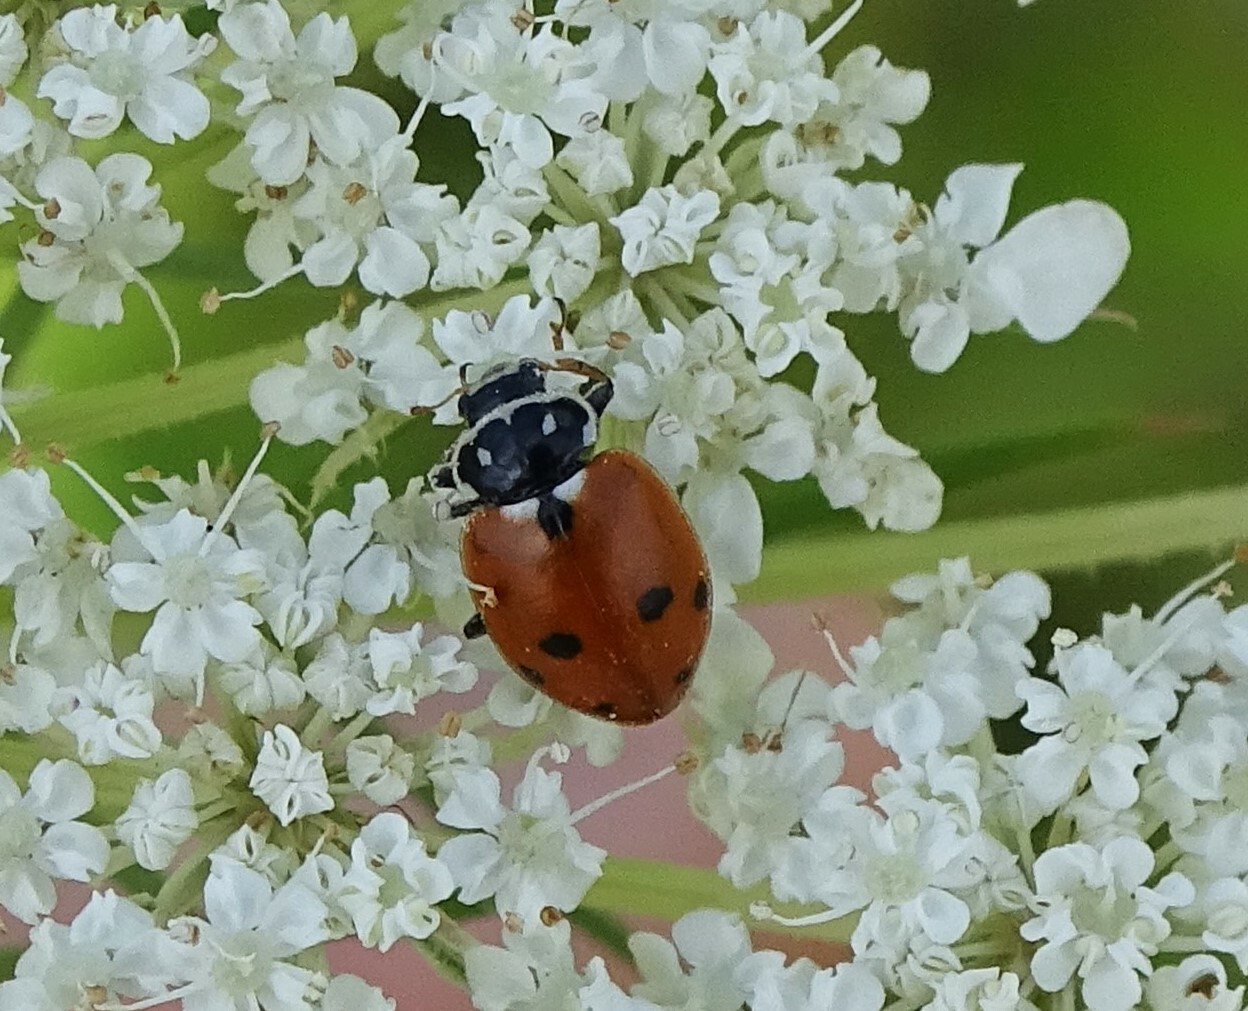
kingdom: Animalia
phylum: Arthropoda
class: Insecta
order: Coleoptera
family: Coccinellidae
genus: Hippodamia
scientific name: Hippodamia variegata
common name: Ladybird beetle
